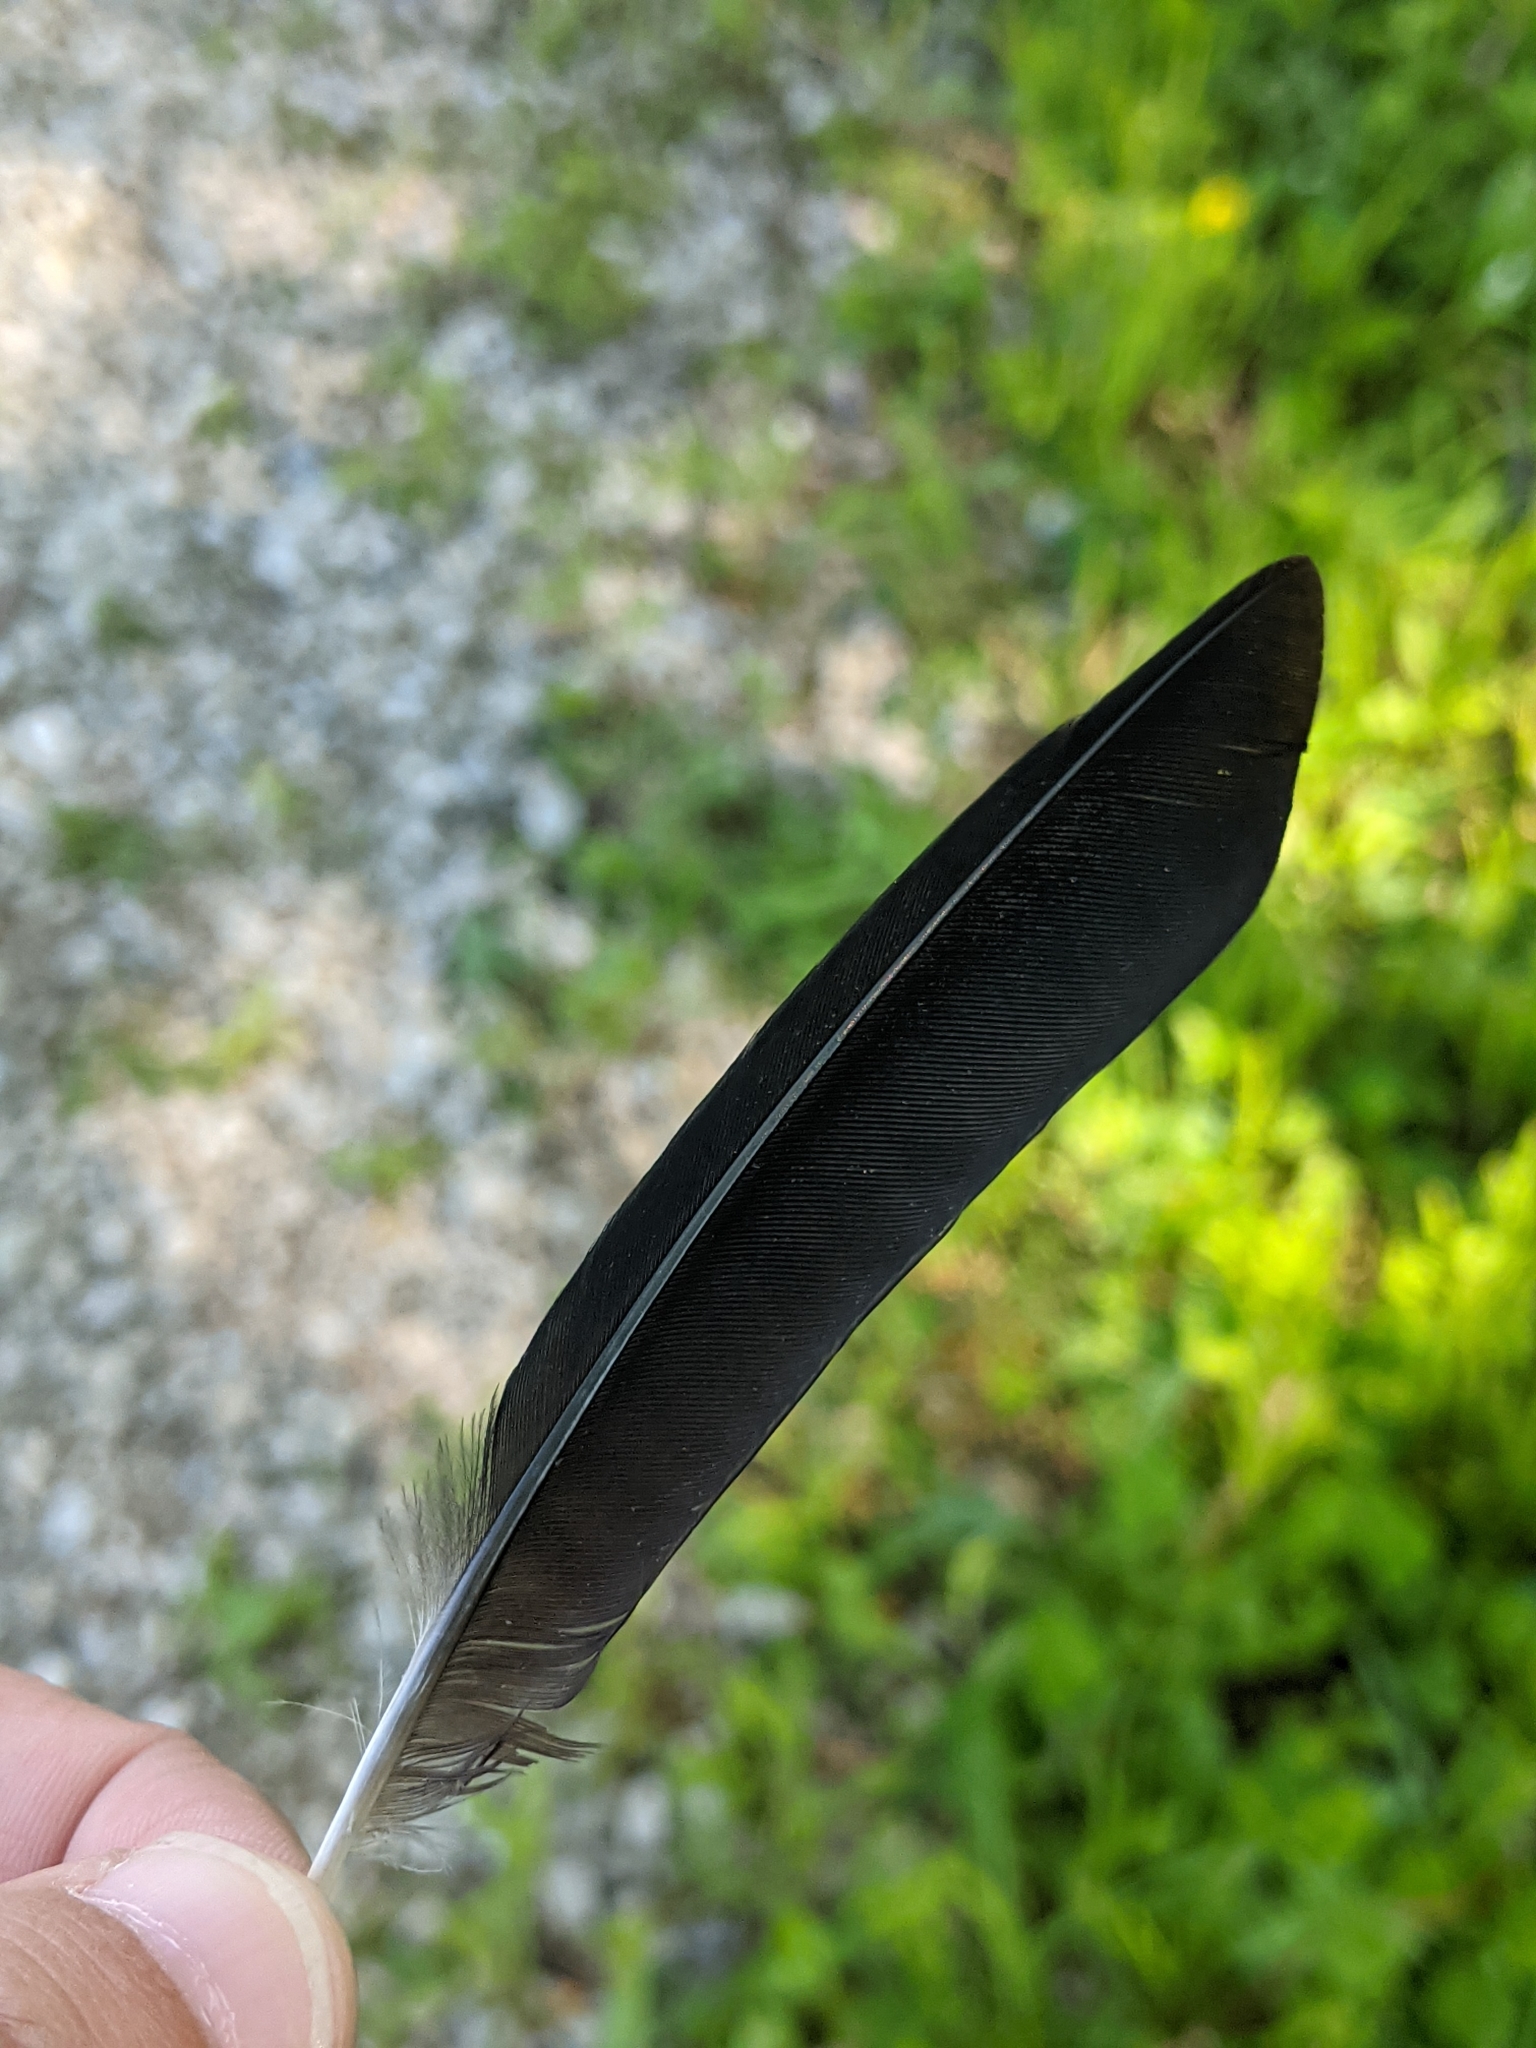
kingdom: Animalia
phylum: Chordata
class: Aves
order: Passeriformes
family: Turdidae
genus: Turdus
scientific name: Turdus migratorius
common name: American robin
